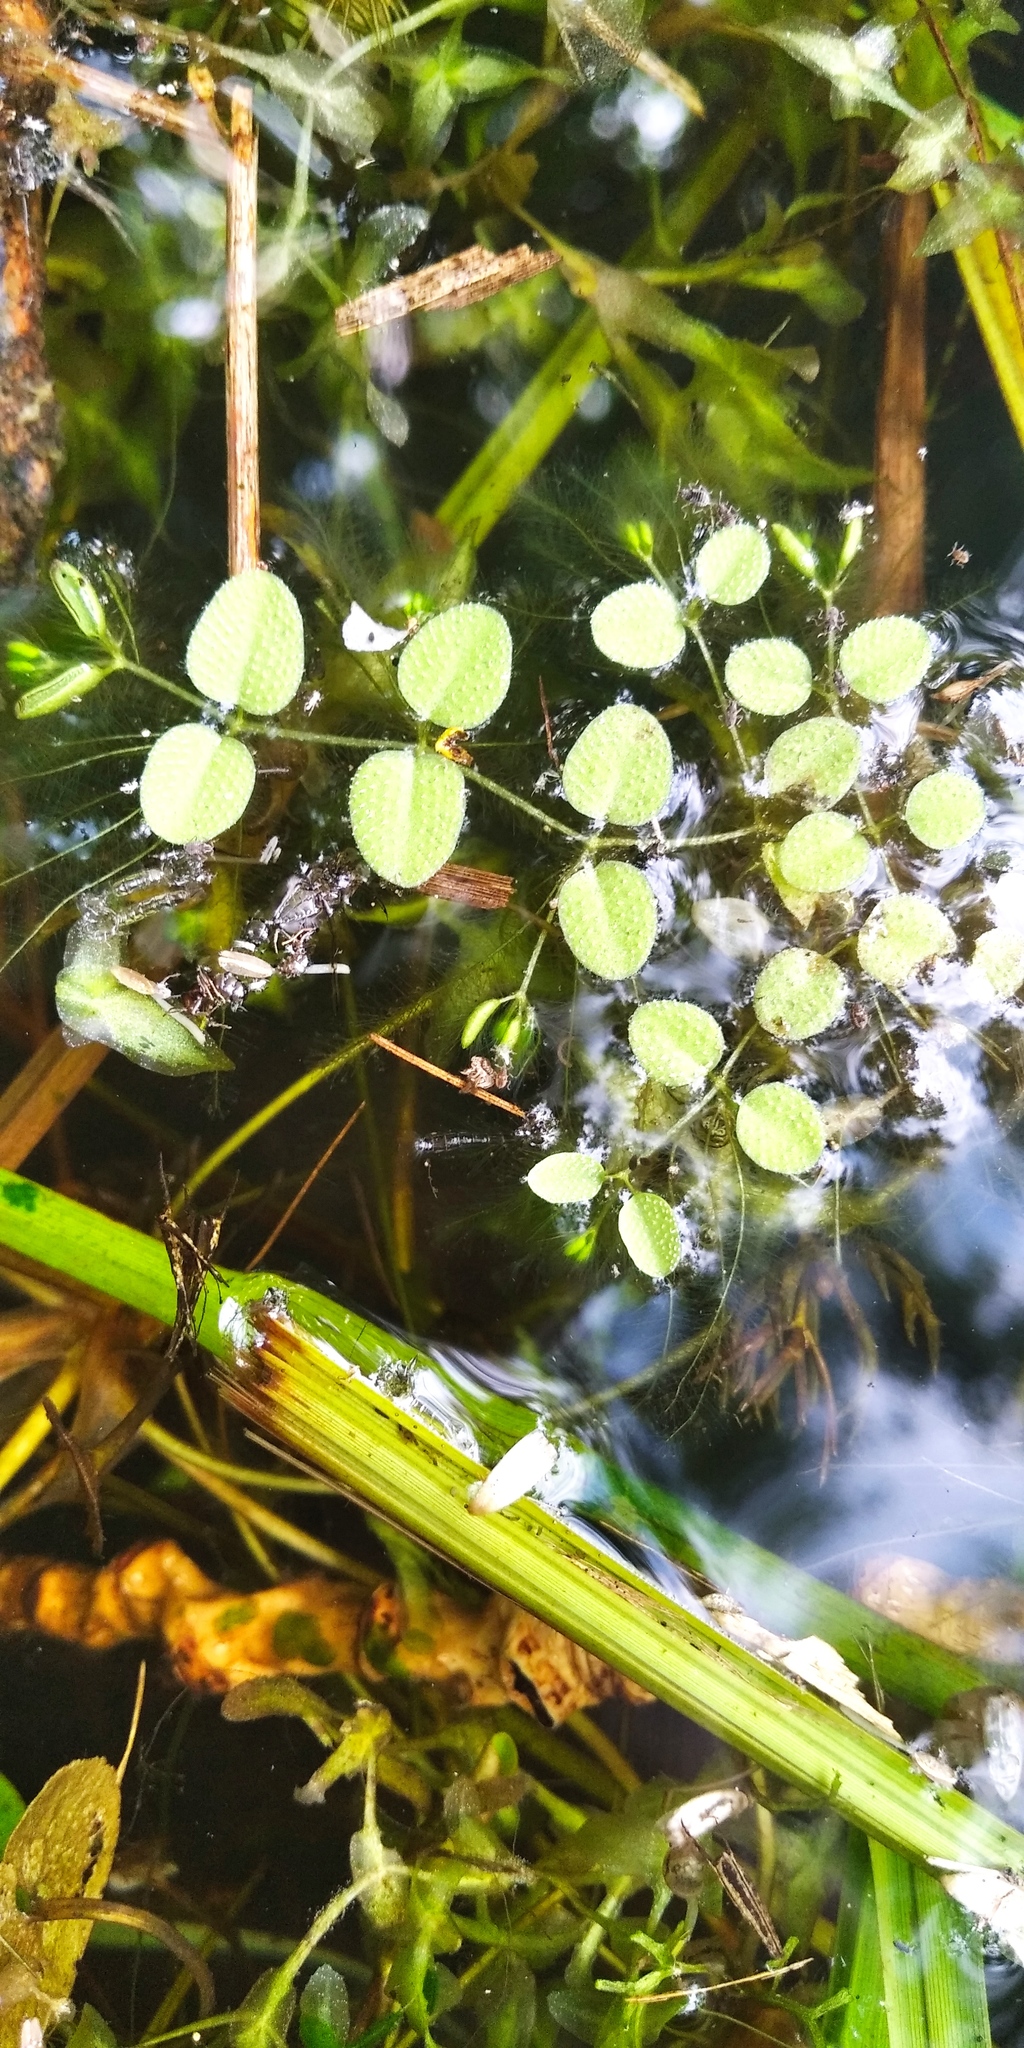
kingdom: Plantae
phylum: Tracheophyta
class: Polypodiopsida
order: Salviniales
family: Salviniaceae
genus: Salvinia
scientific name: Salvinia natans
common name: Floating fern
